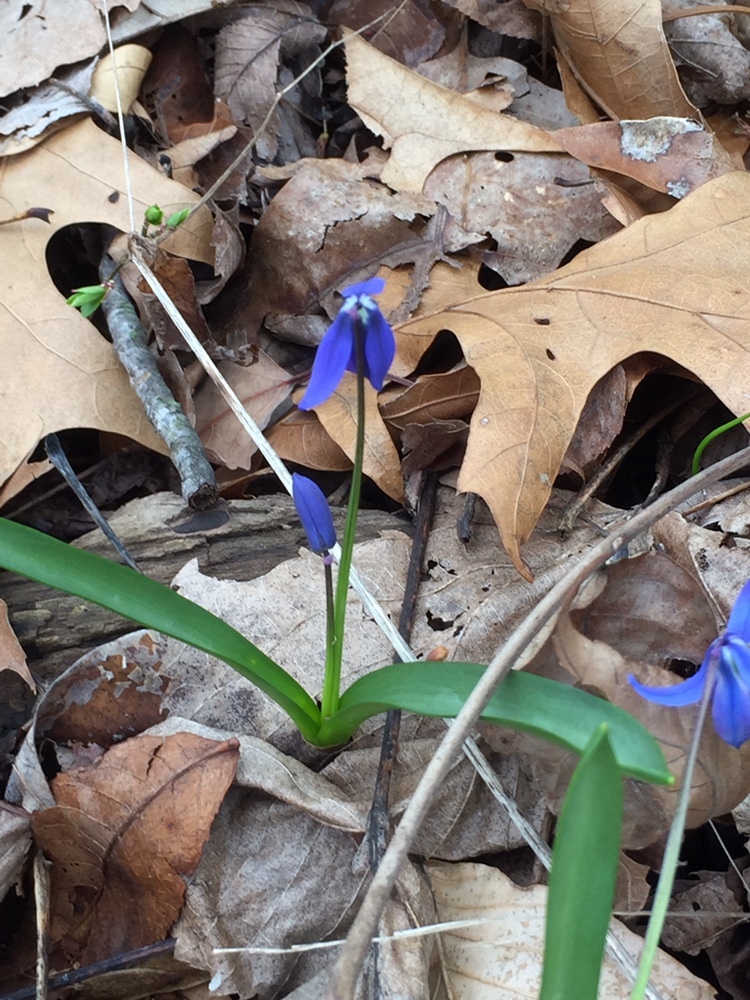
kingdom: Plantae
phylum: Tracheophyta
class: Liliopsida
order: Asparagales
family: Asparagaceae
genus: Scilla
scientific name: Scilla siberica
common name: Siberian squill
